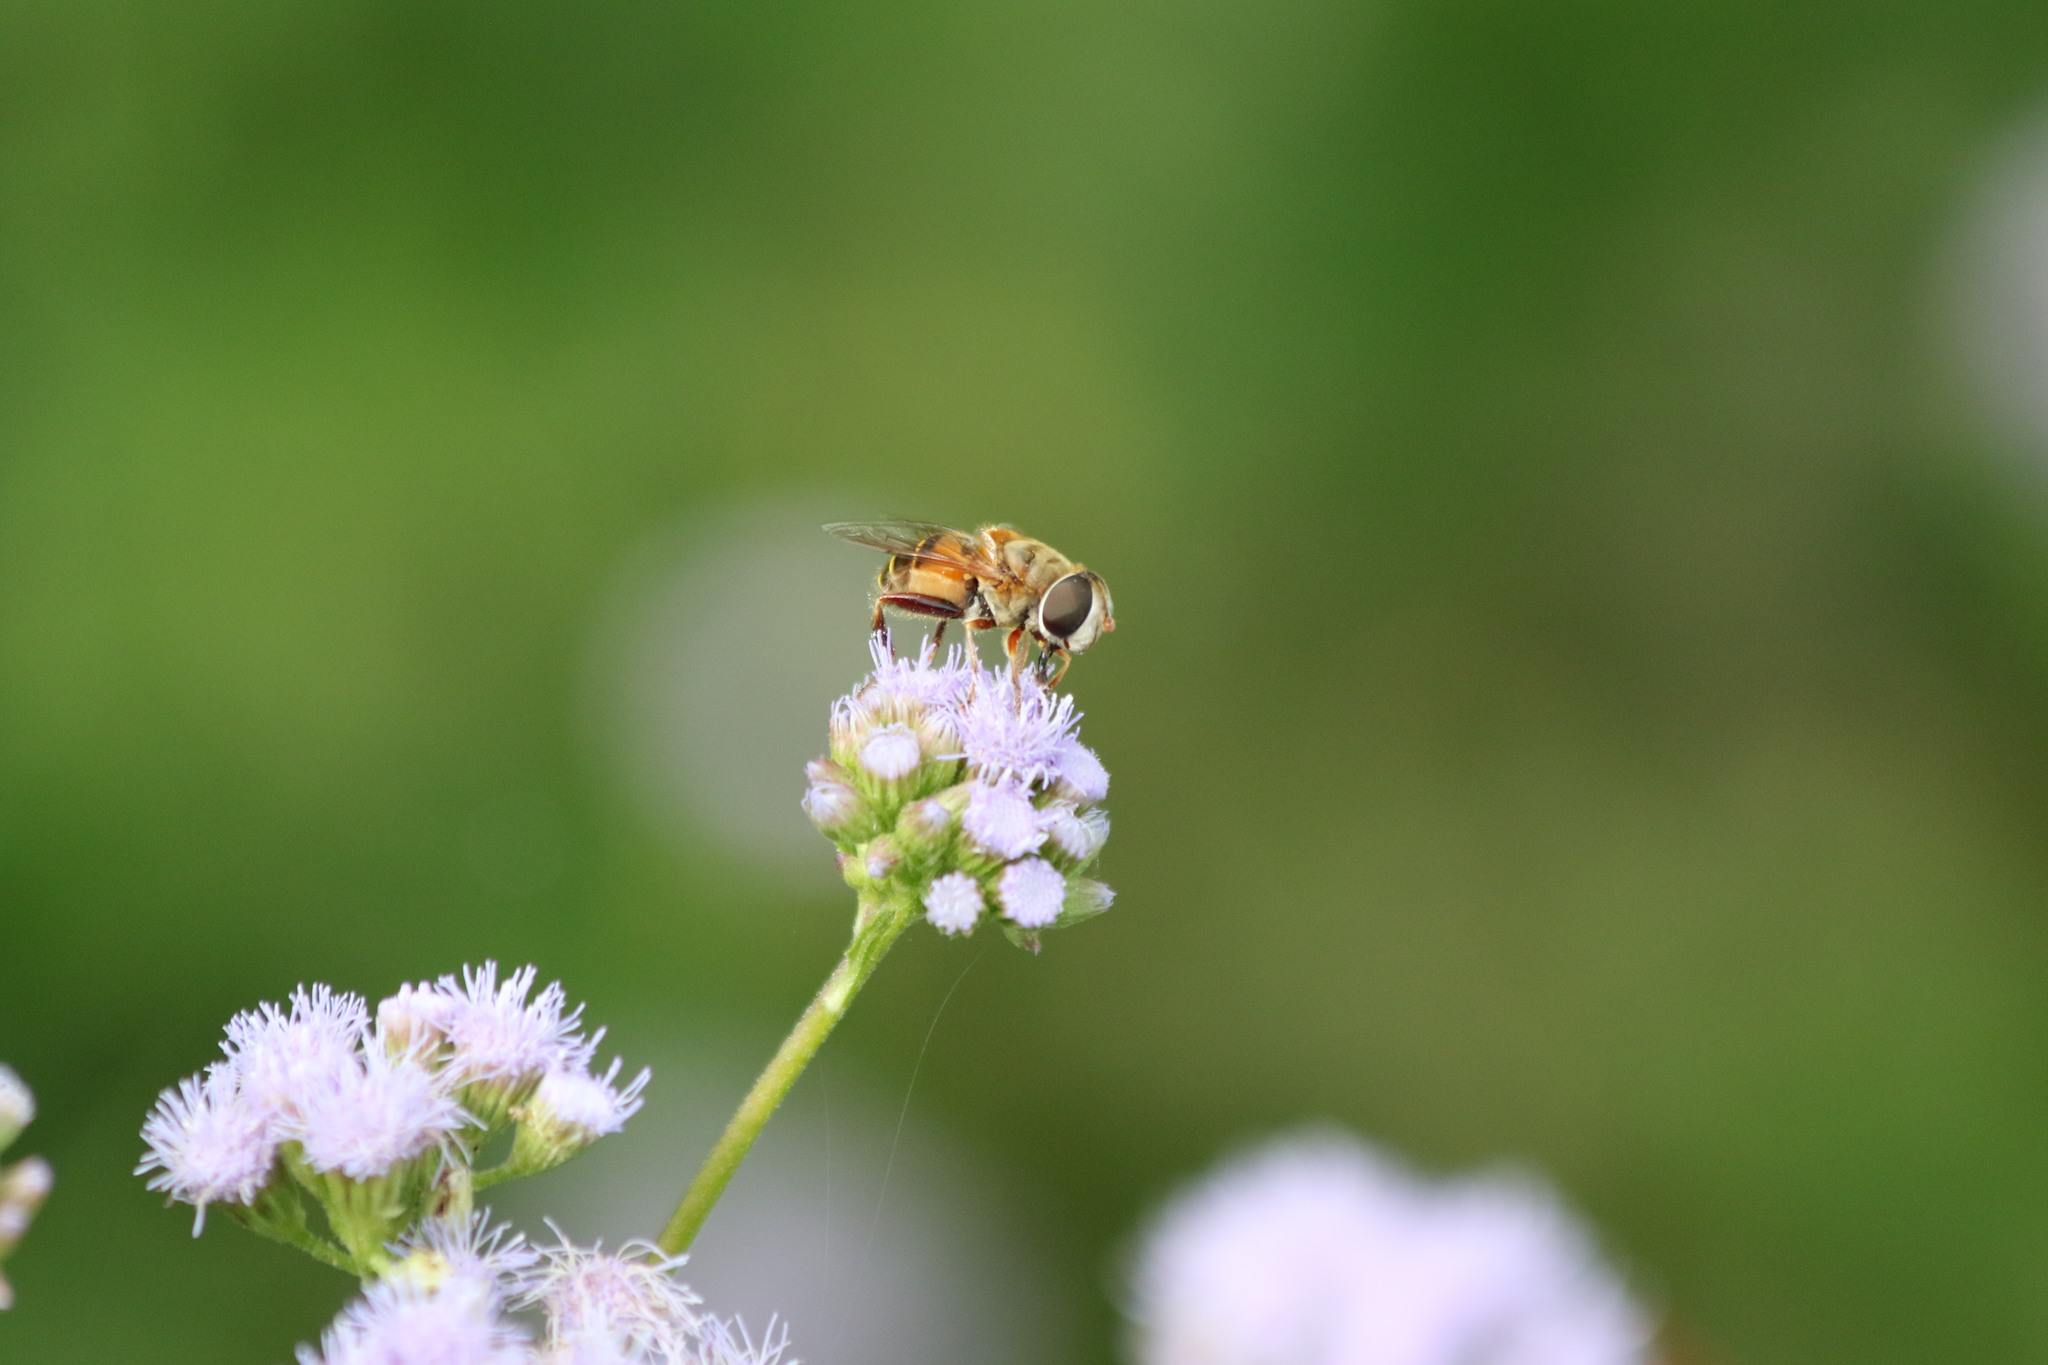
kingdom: Animalia
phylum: Arthropoda
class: Insecta
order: Diptera
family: Syrphidae
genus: Palpada
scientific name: Palpada vinetorum
